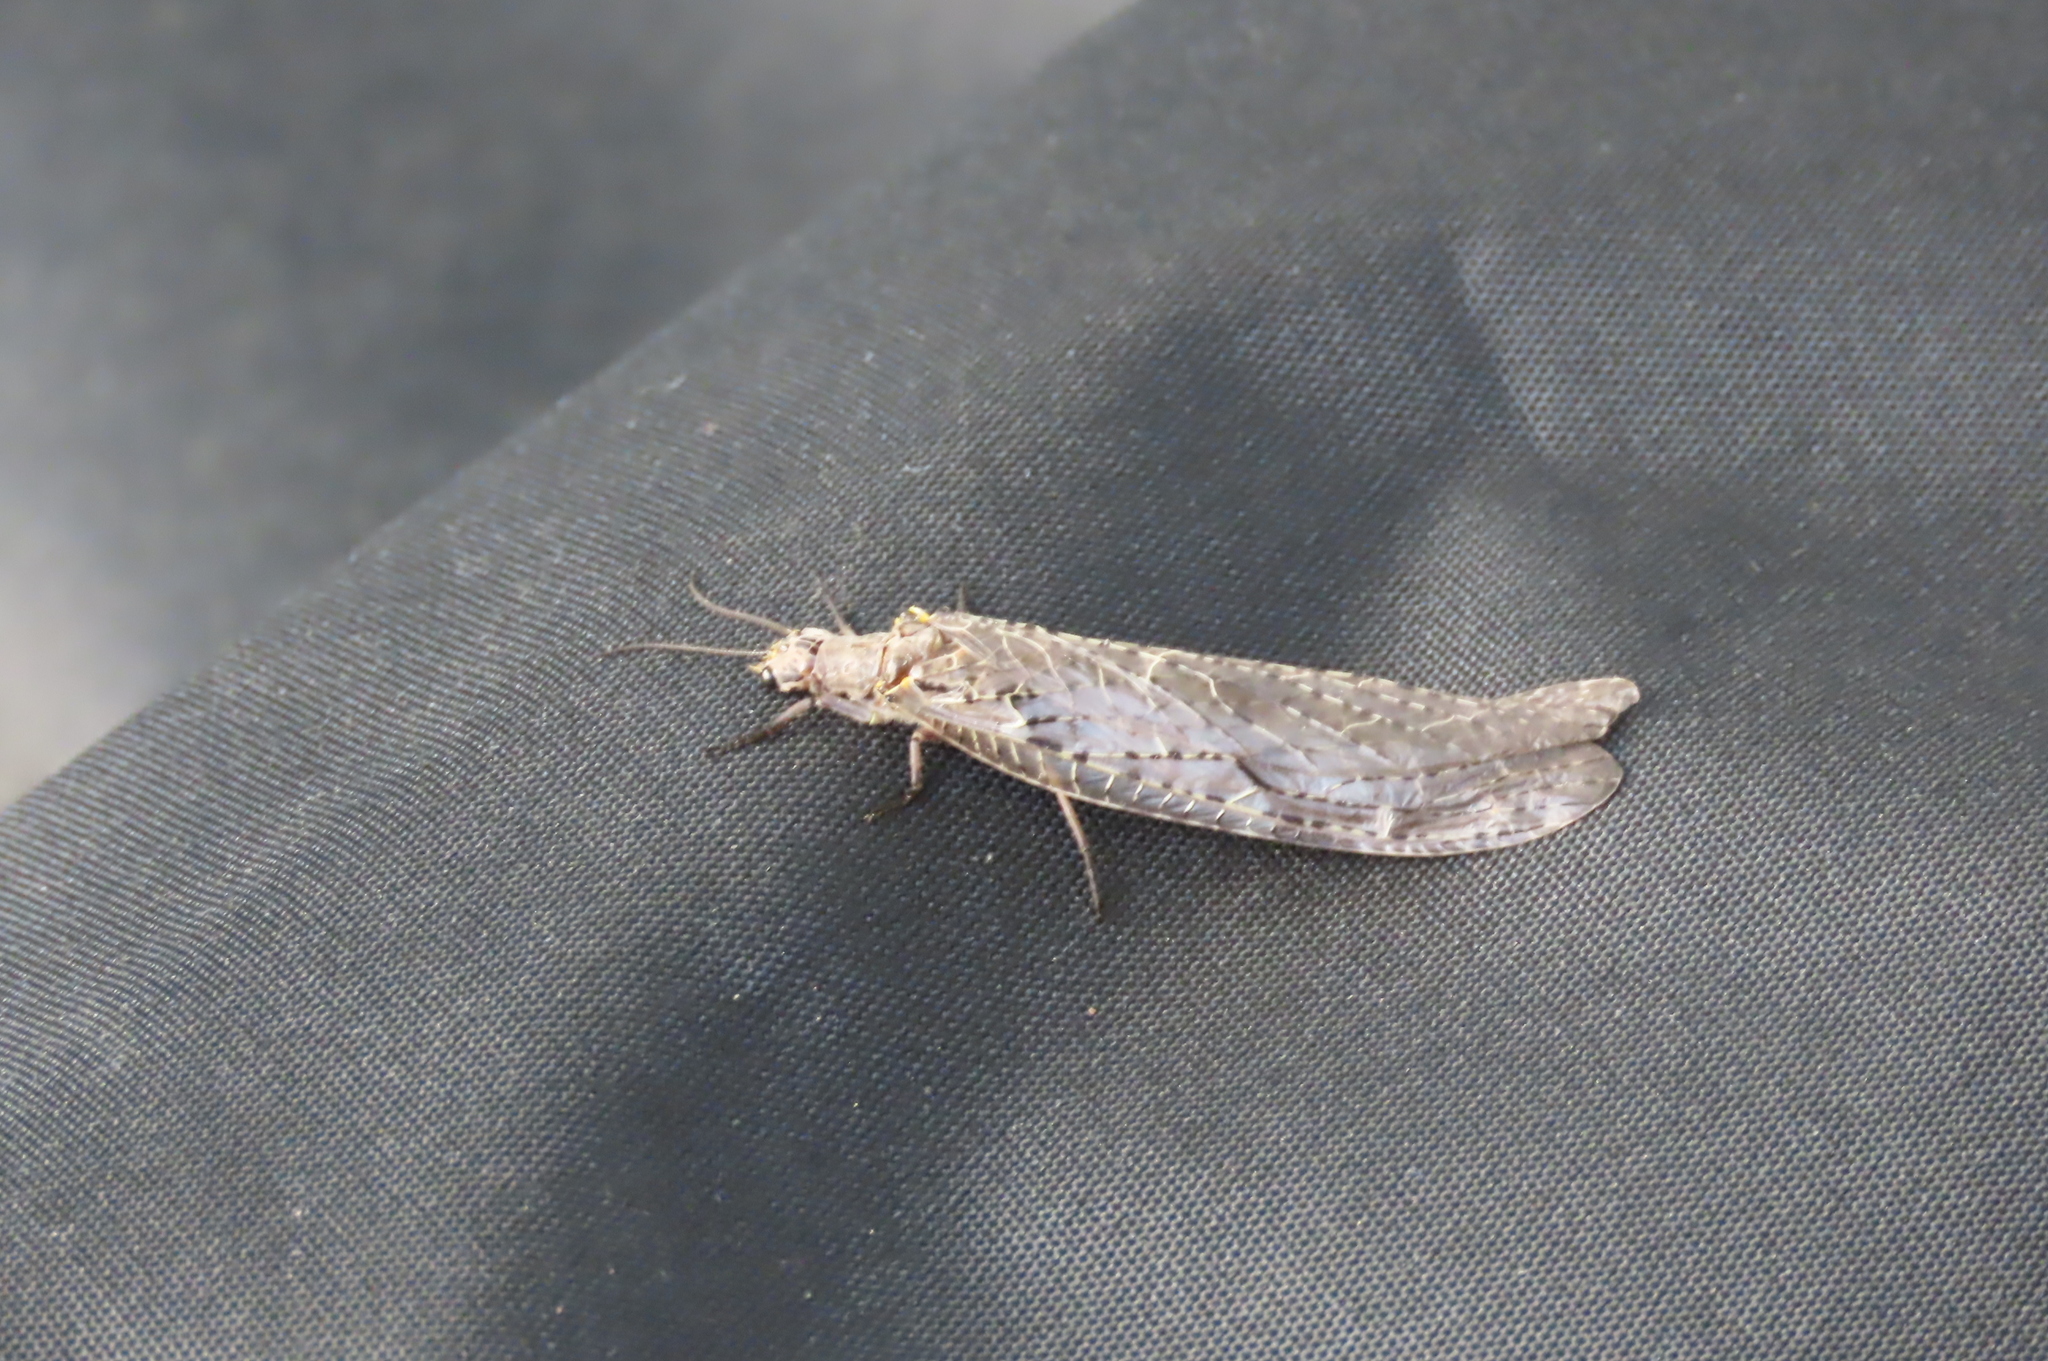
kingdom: Animalia
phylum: Arthropoda
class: Insecta
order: Megaloptera
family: Corydalidae
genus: Chauliodes
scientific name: Chauliodes rastricornis
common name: Spring fishfly
